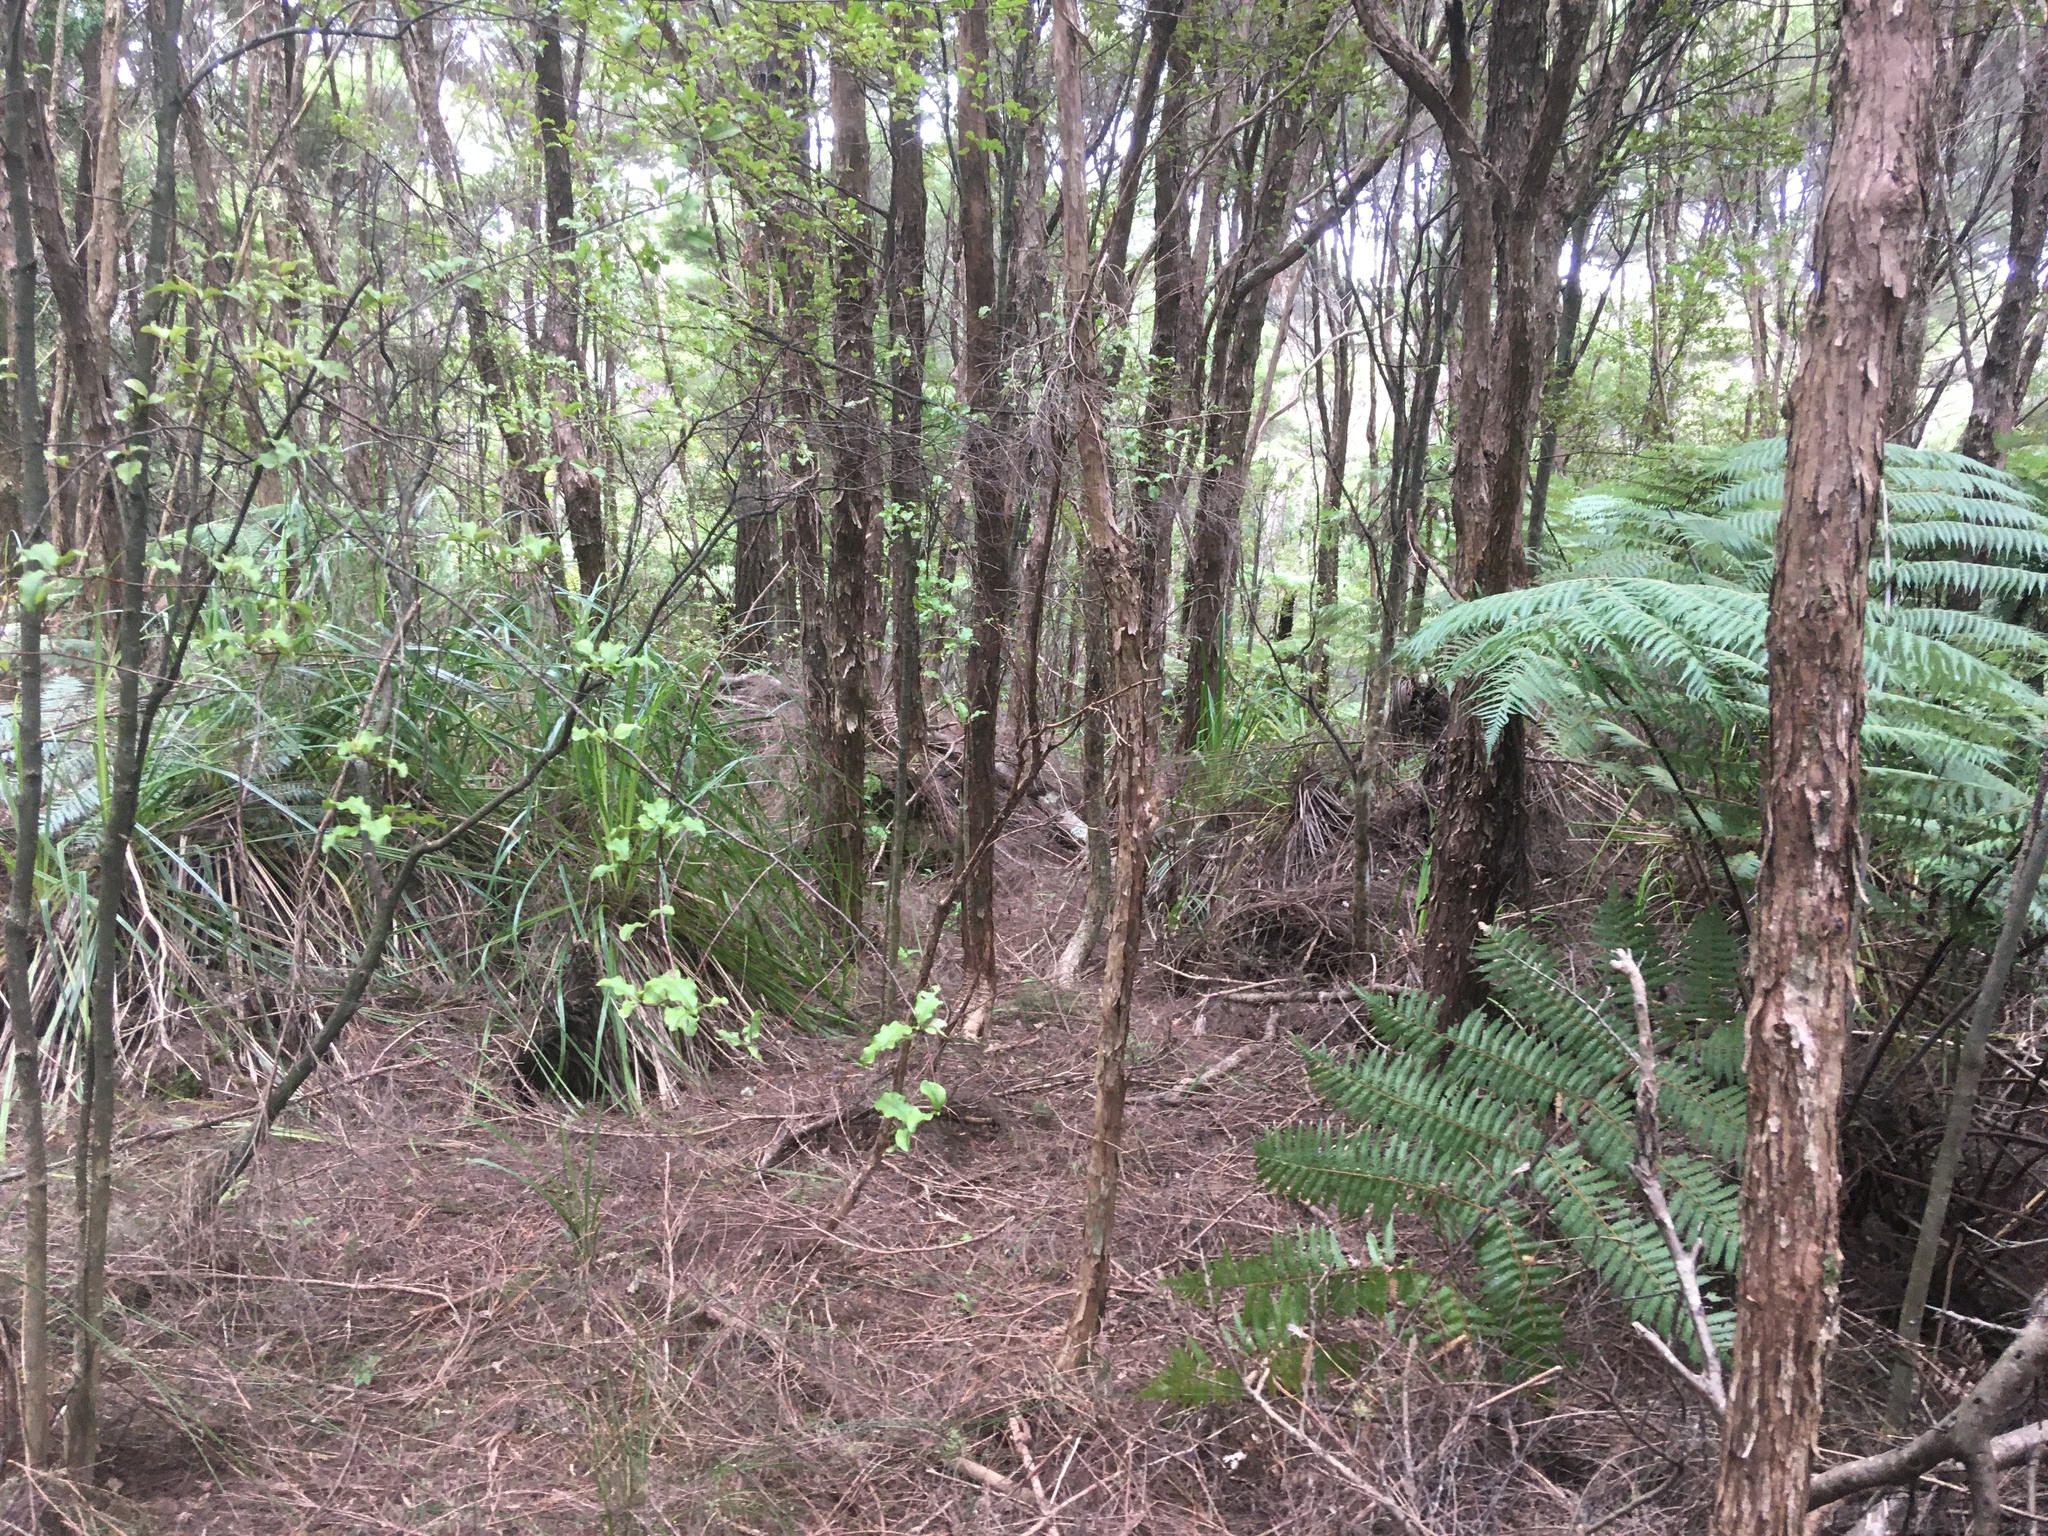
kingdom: Plantae
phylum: Tracheophyta
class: Magnoliopsida
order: Ericales
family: Primulaceae
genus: Myrsine
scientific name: Myrsine australis
